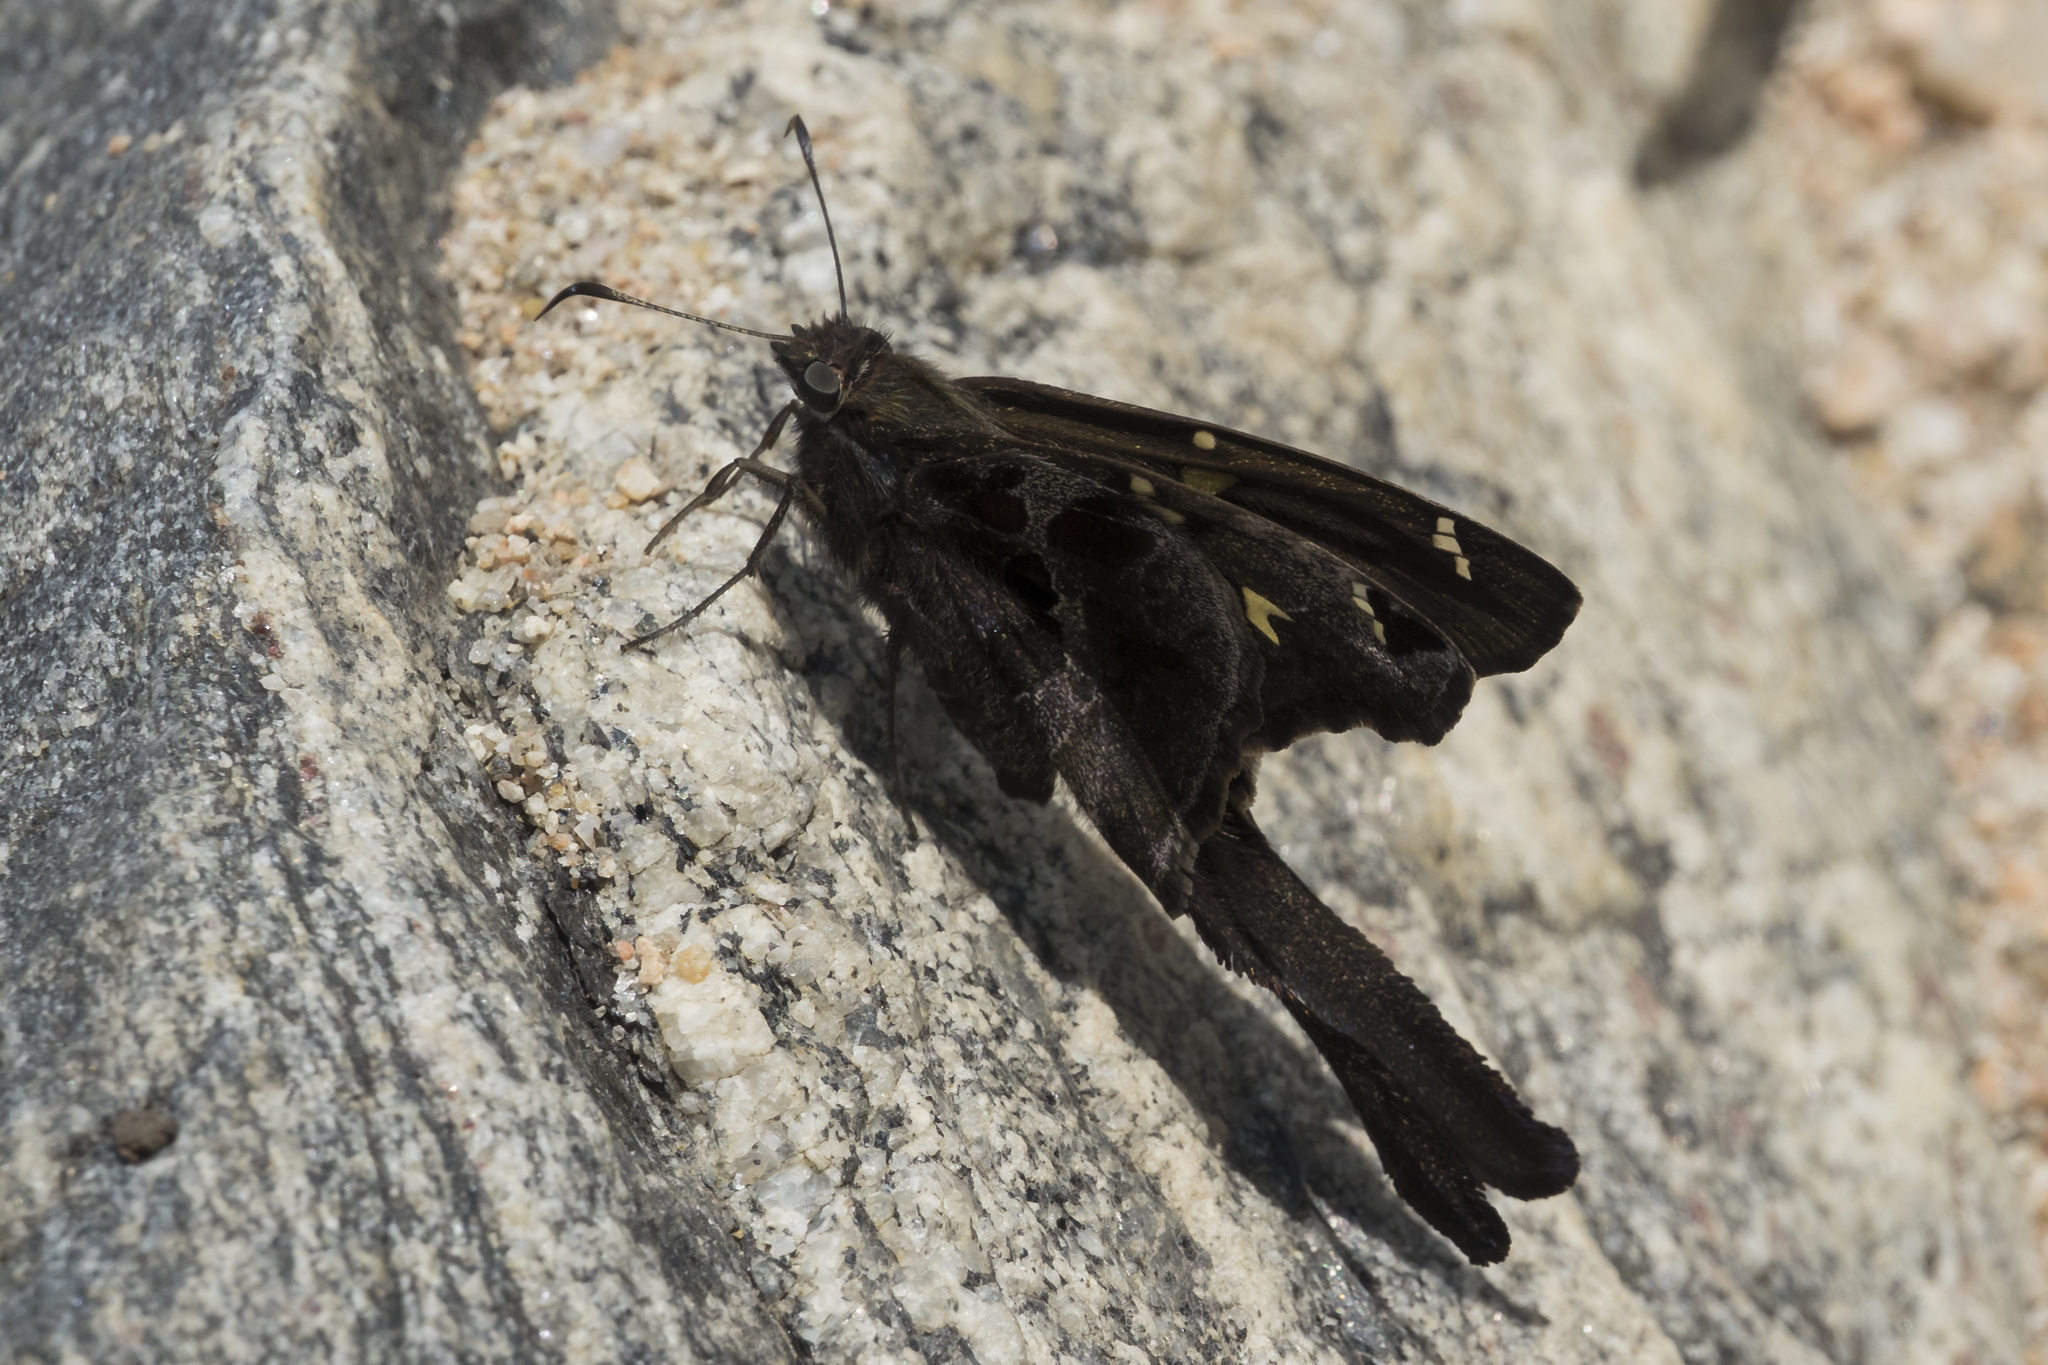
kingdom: Animalia
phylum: Arthropoda
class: Insecta
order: Lepidoptera
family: Hesperiidae
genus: Chioides
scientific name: Chioides catillus
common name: Silverbanded skipper
